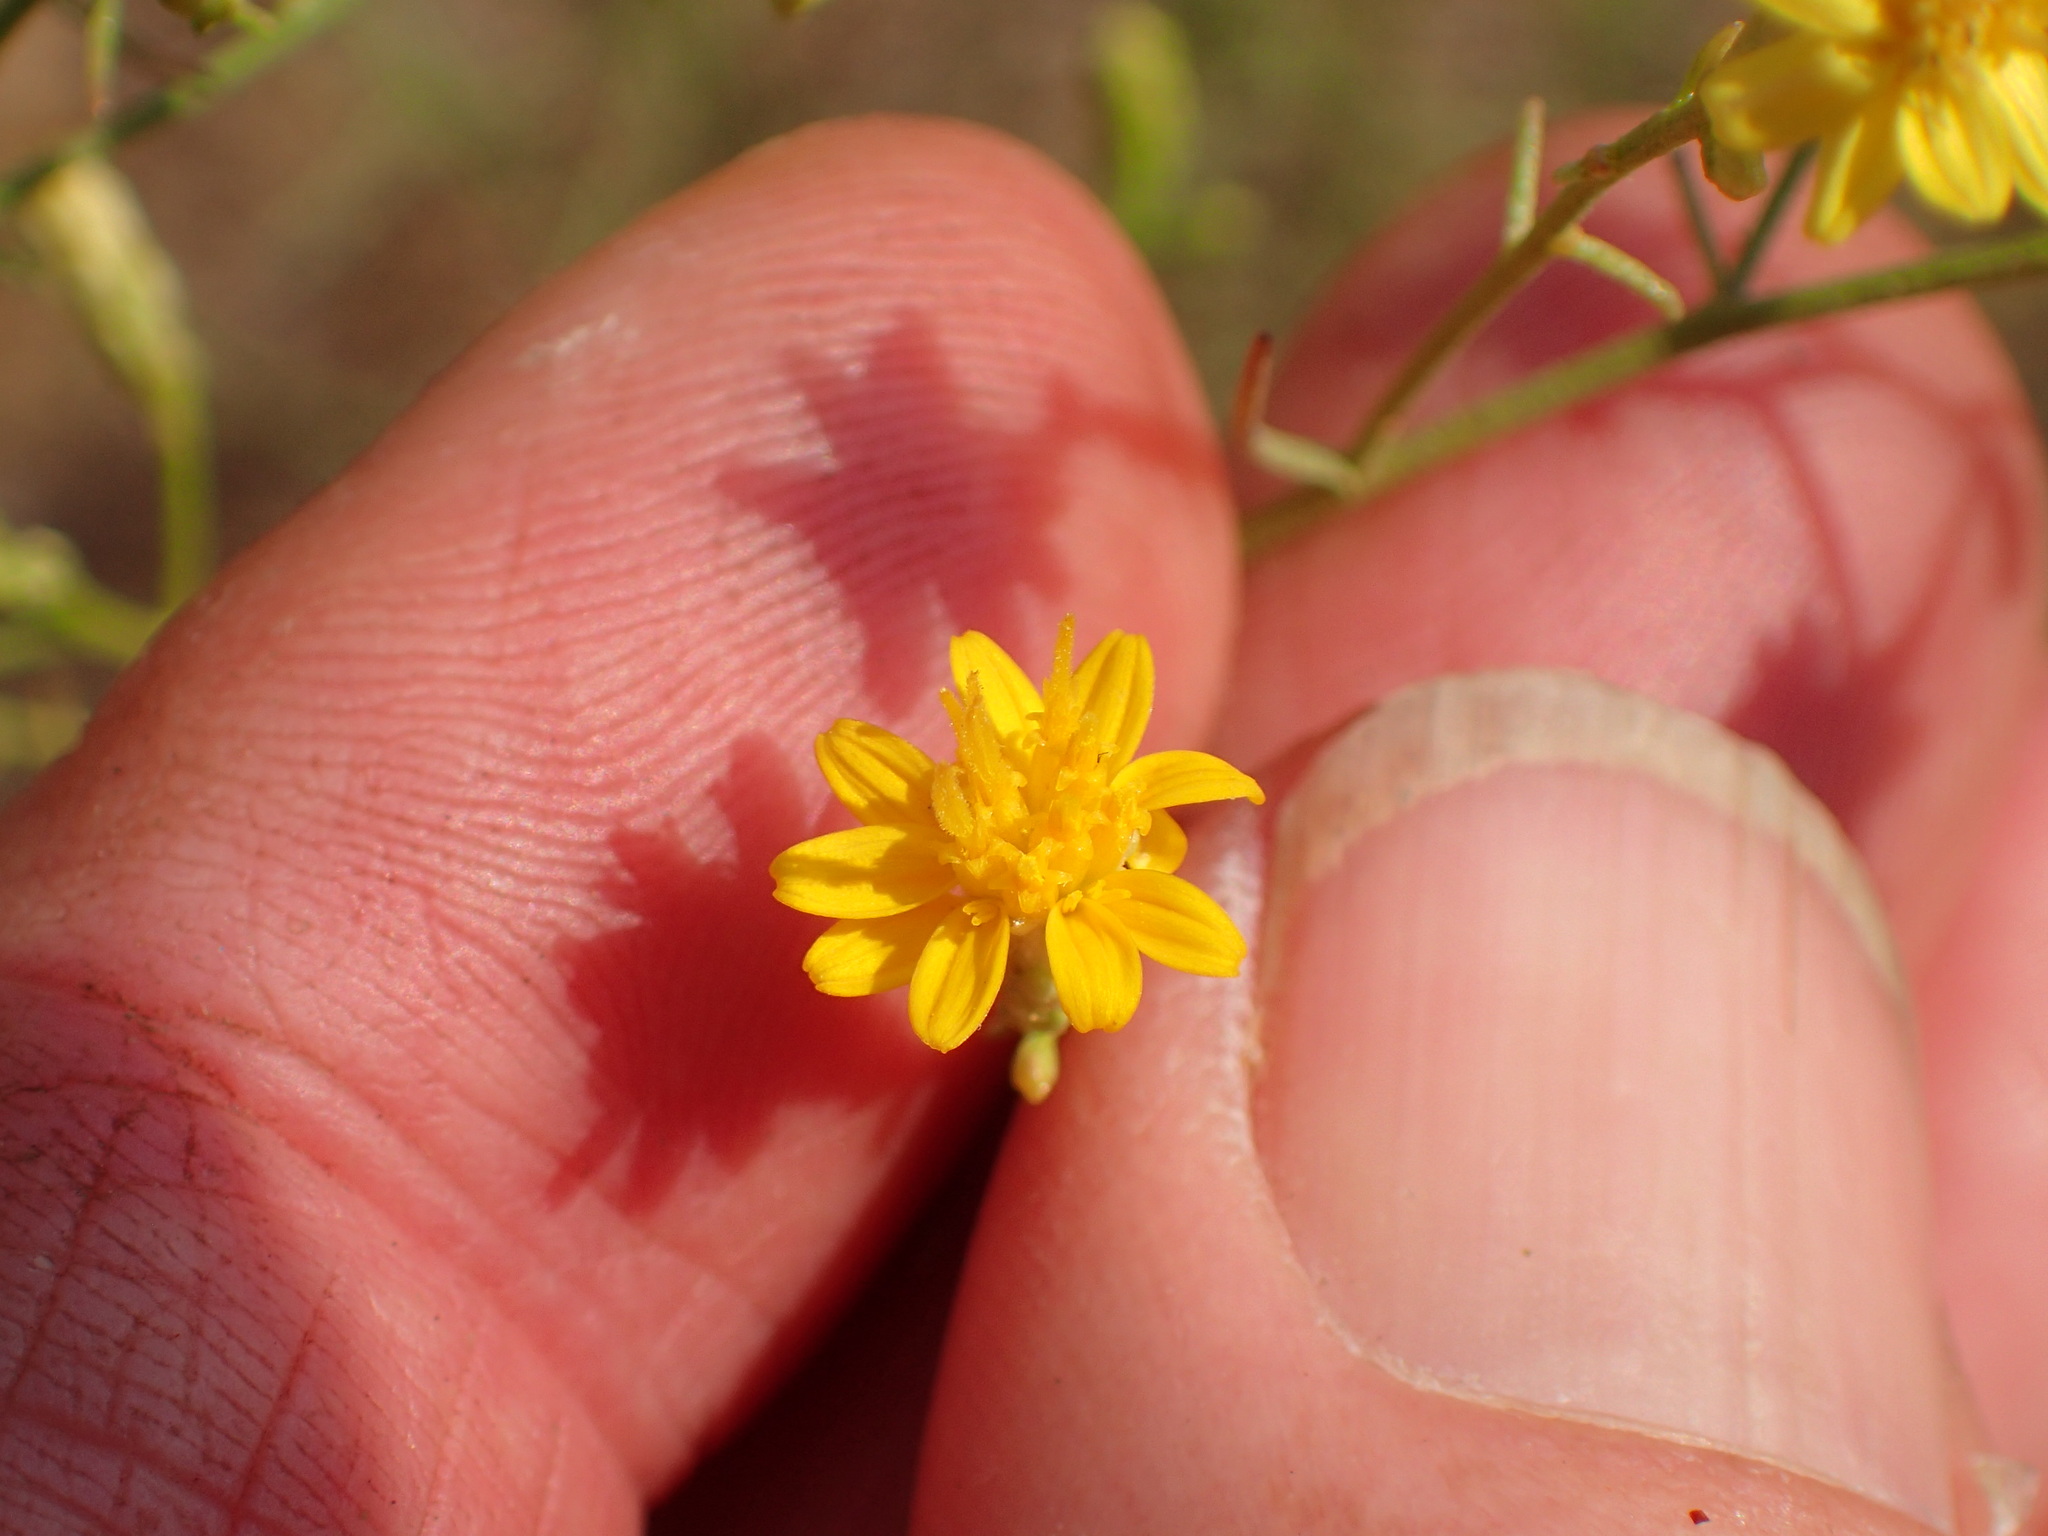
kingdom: Plantae
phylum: Tracheophyta
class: Magnoliopsida
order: Asterales
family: Asteraceae
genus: Gutierrezia
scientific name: Gutierrezia californica
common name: California matchweed
